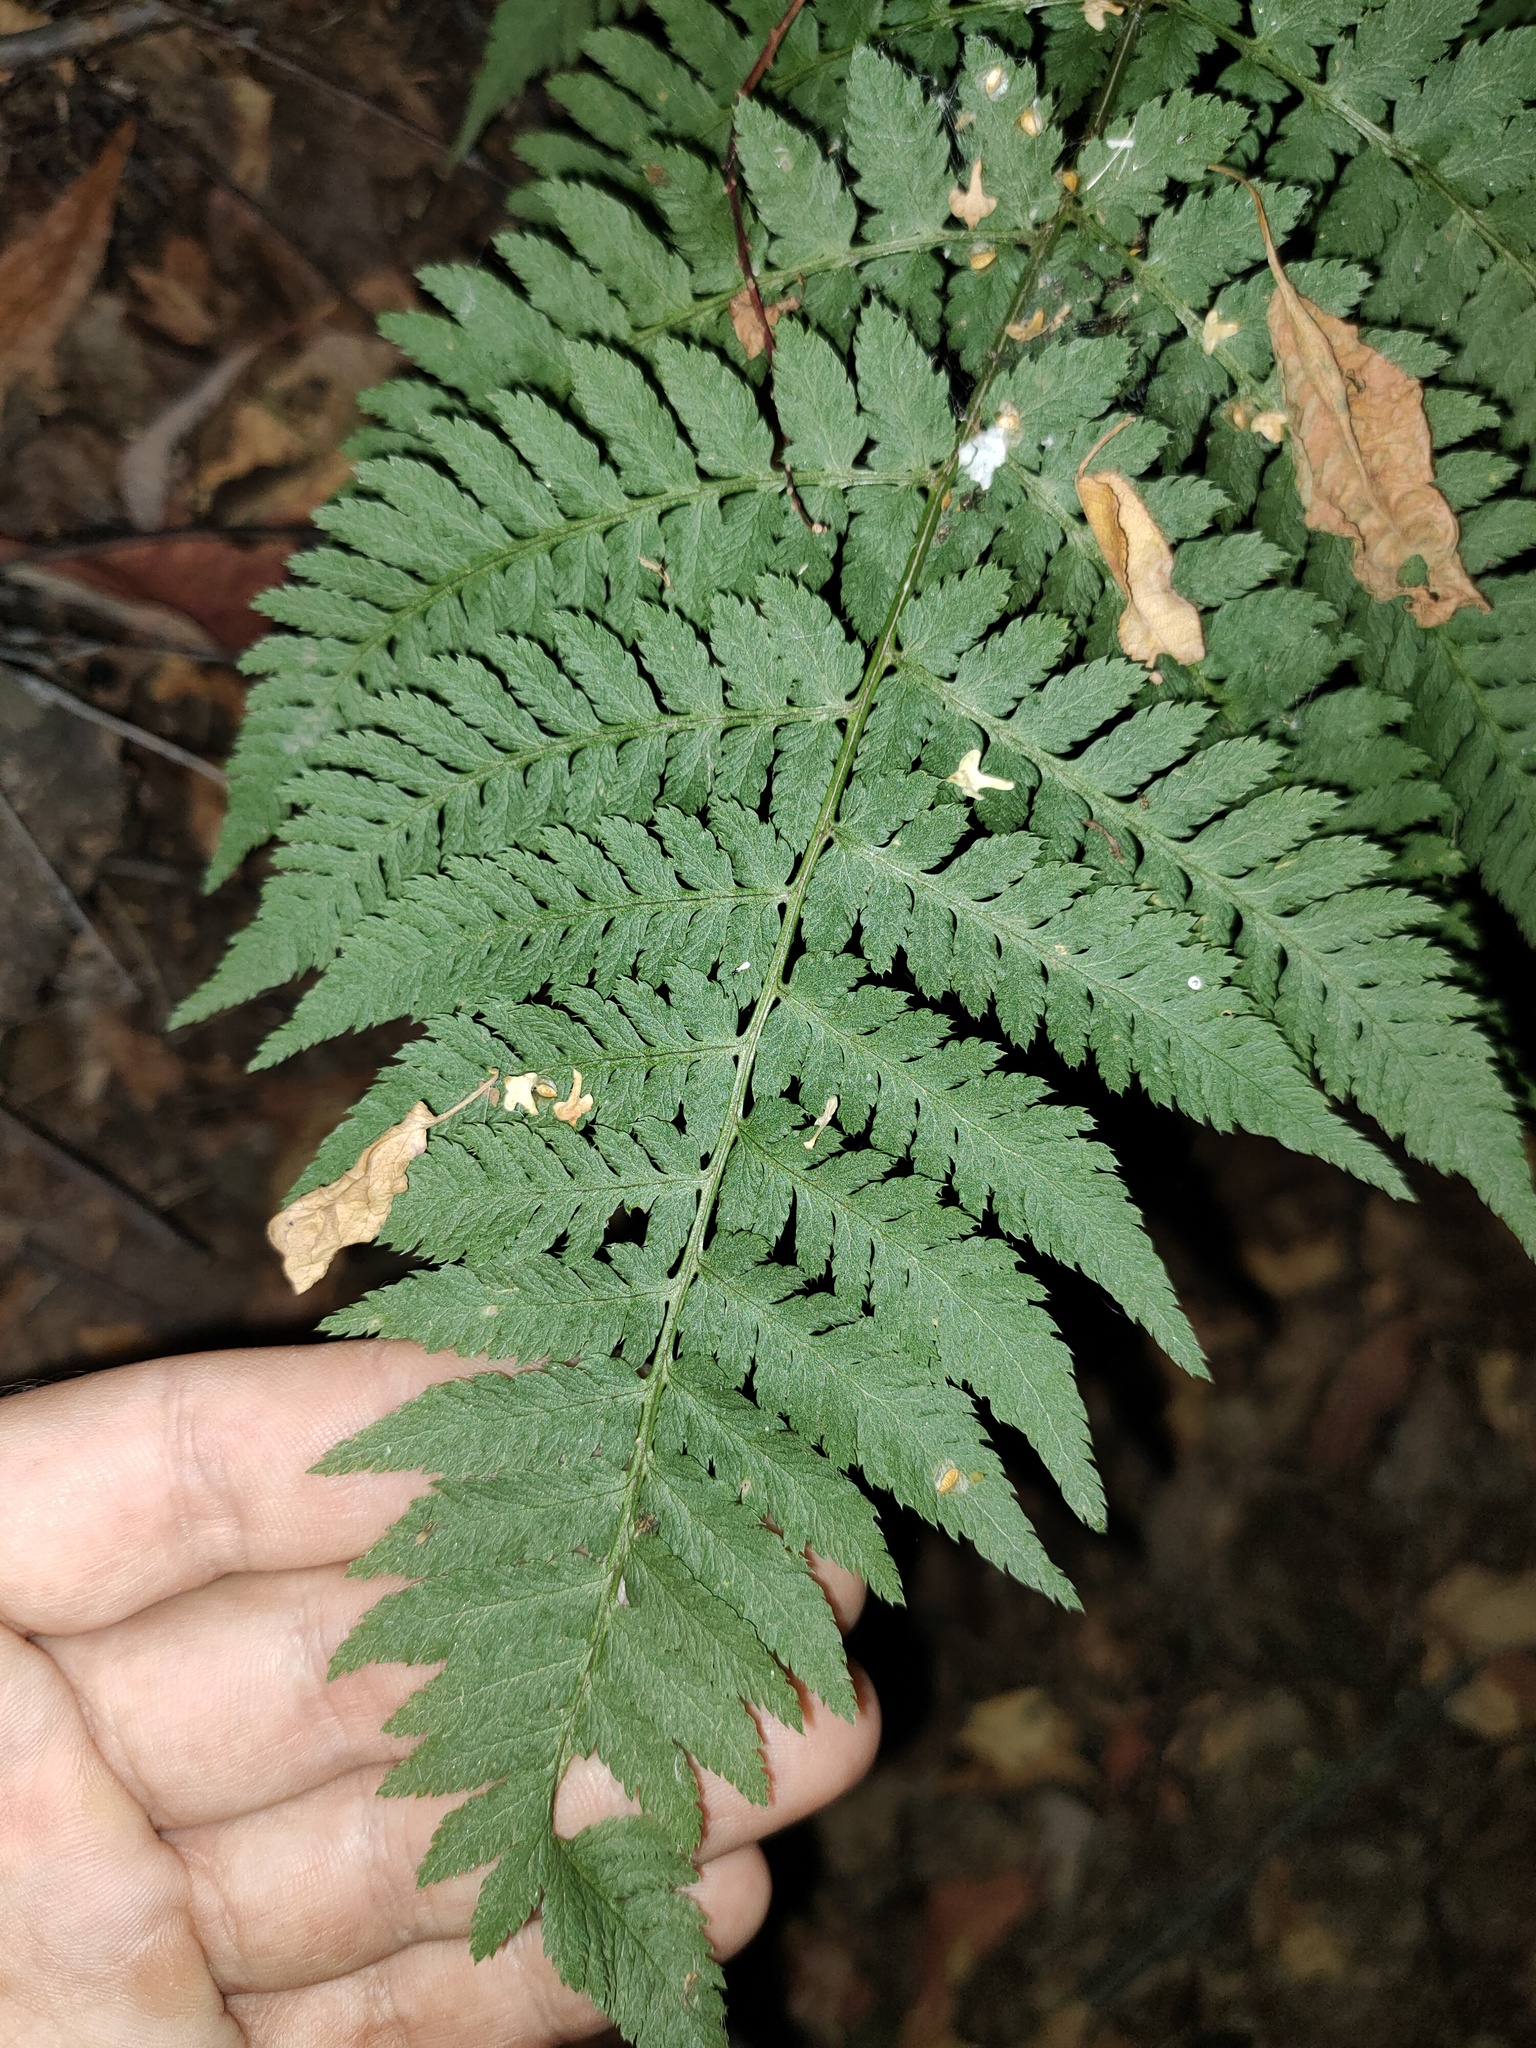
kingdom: Plantae
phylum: Tracheophyta
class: Polypodiopsida
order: Polypodiales
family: Dryopteridaceae
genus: Dryopteris
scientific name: Dryopteris expansa
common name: Northern buckler fern
